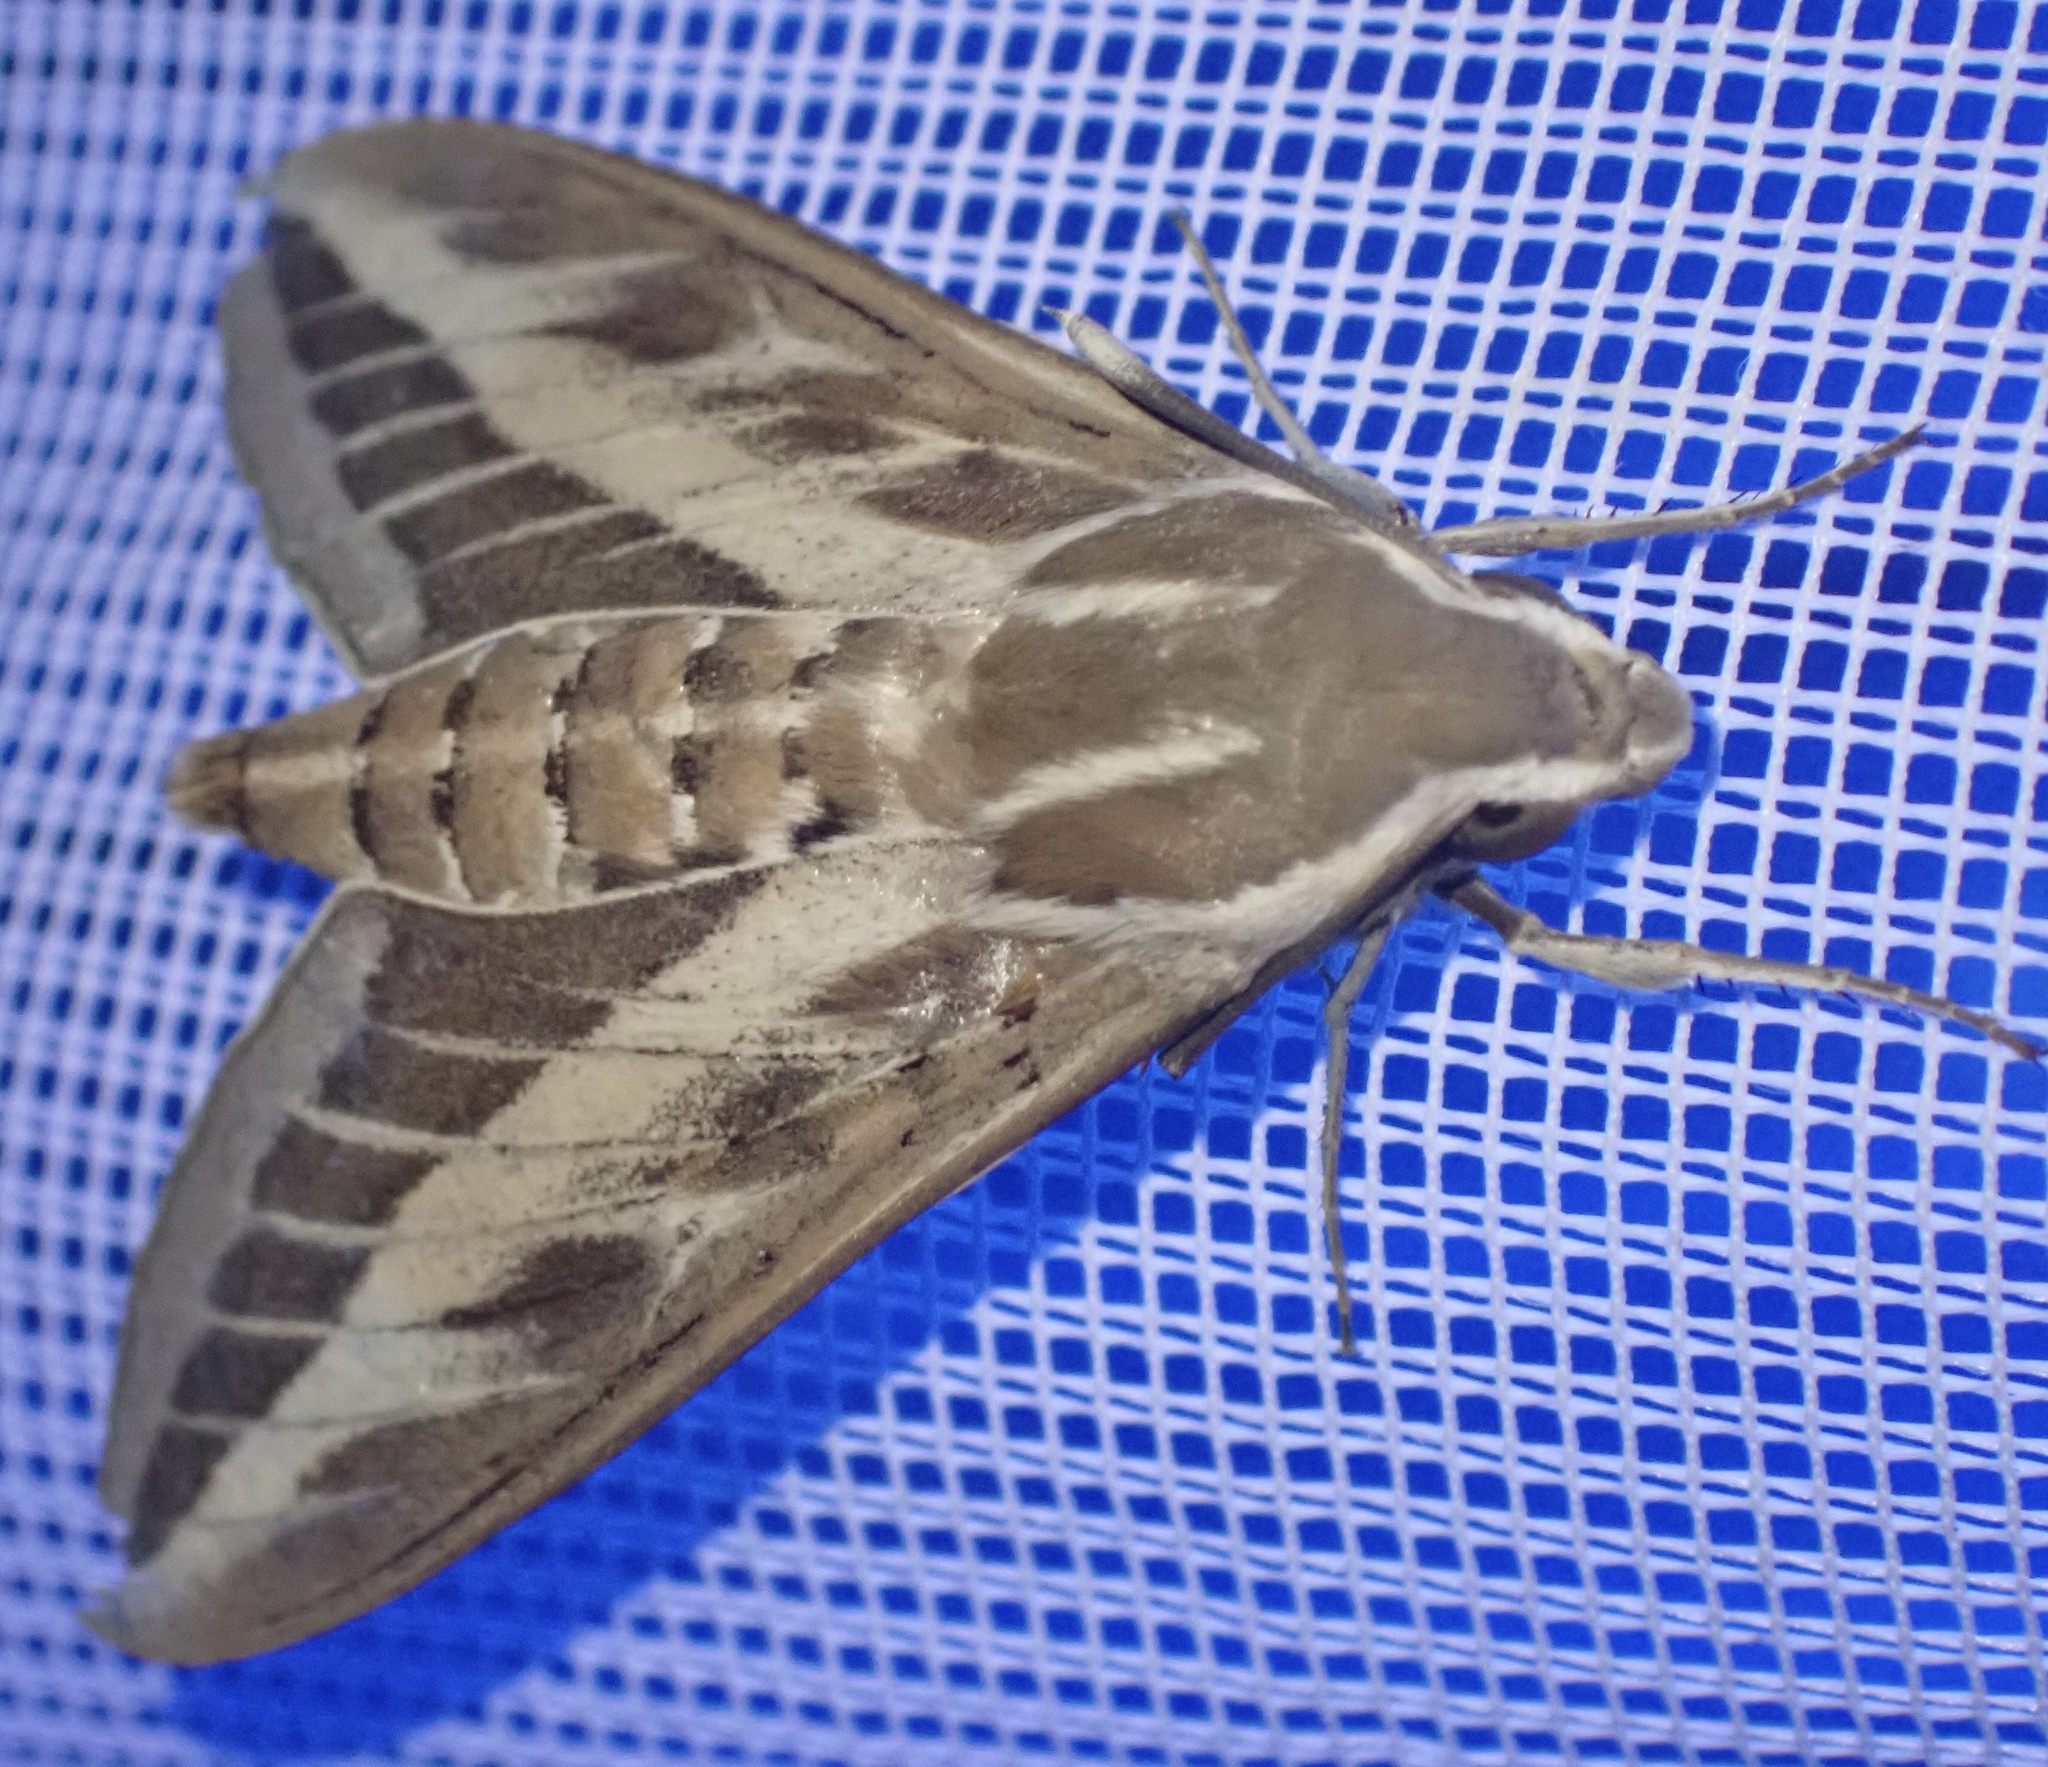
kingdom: Animalia
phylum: Arthropoda
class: Insecta
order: Lepidoptera
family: Sphingidae
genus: Hyles
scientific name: Hyles livornica
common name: Striped hawk-moth
